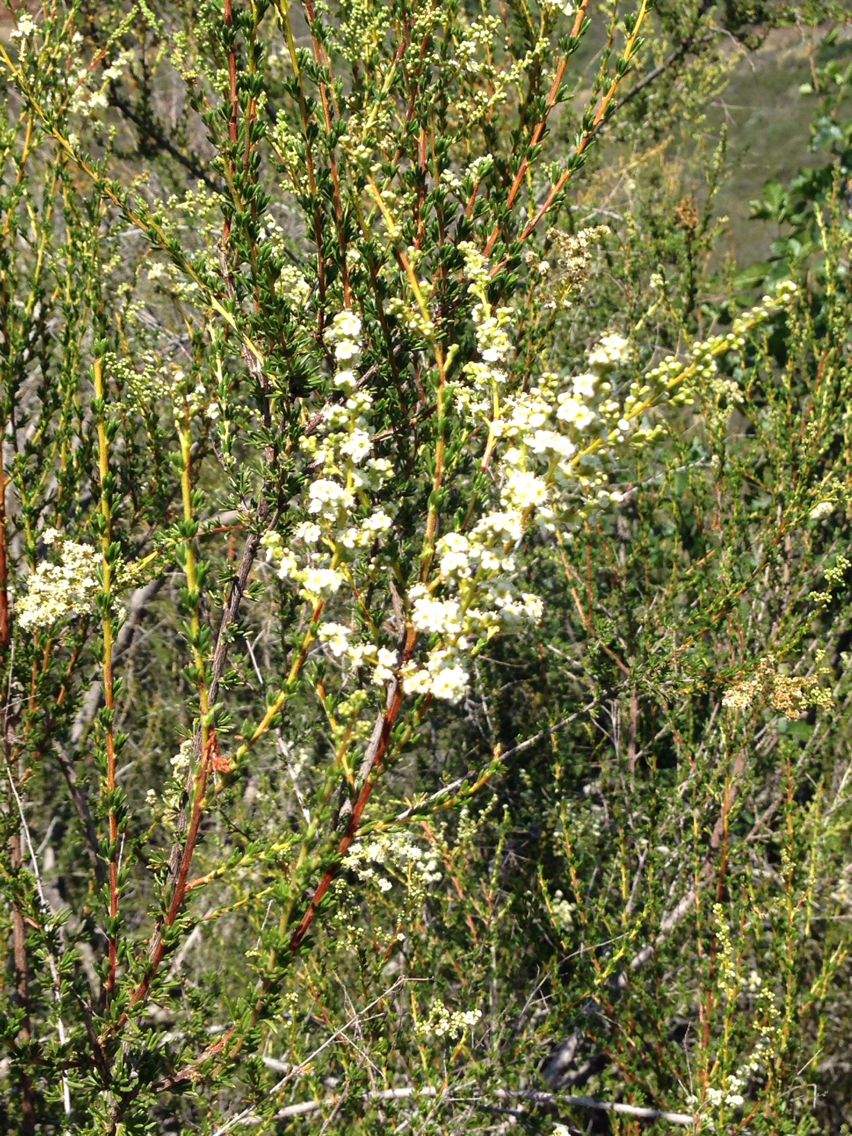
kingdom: Plantae
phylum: Tracheophyta
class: Magnoliopsida
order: Rosales
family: Rosaceae
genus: Adenostoma
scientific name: Adenostoma fasciculatum
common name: Chamise
